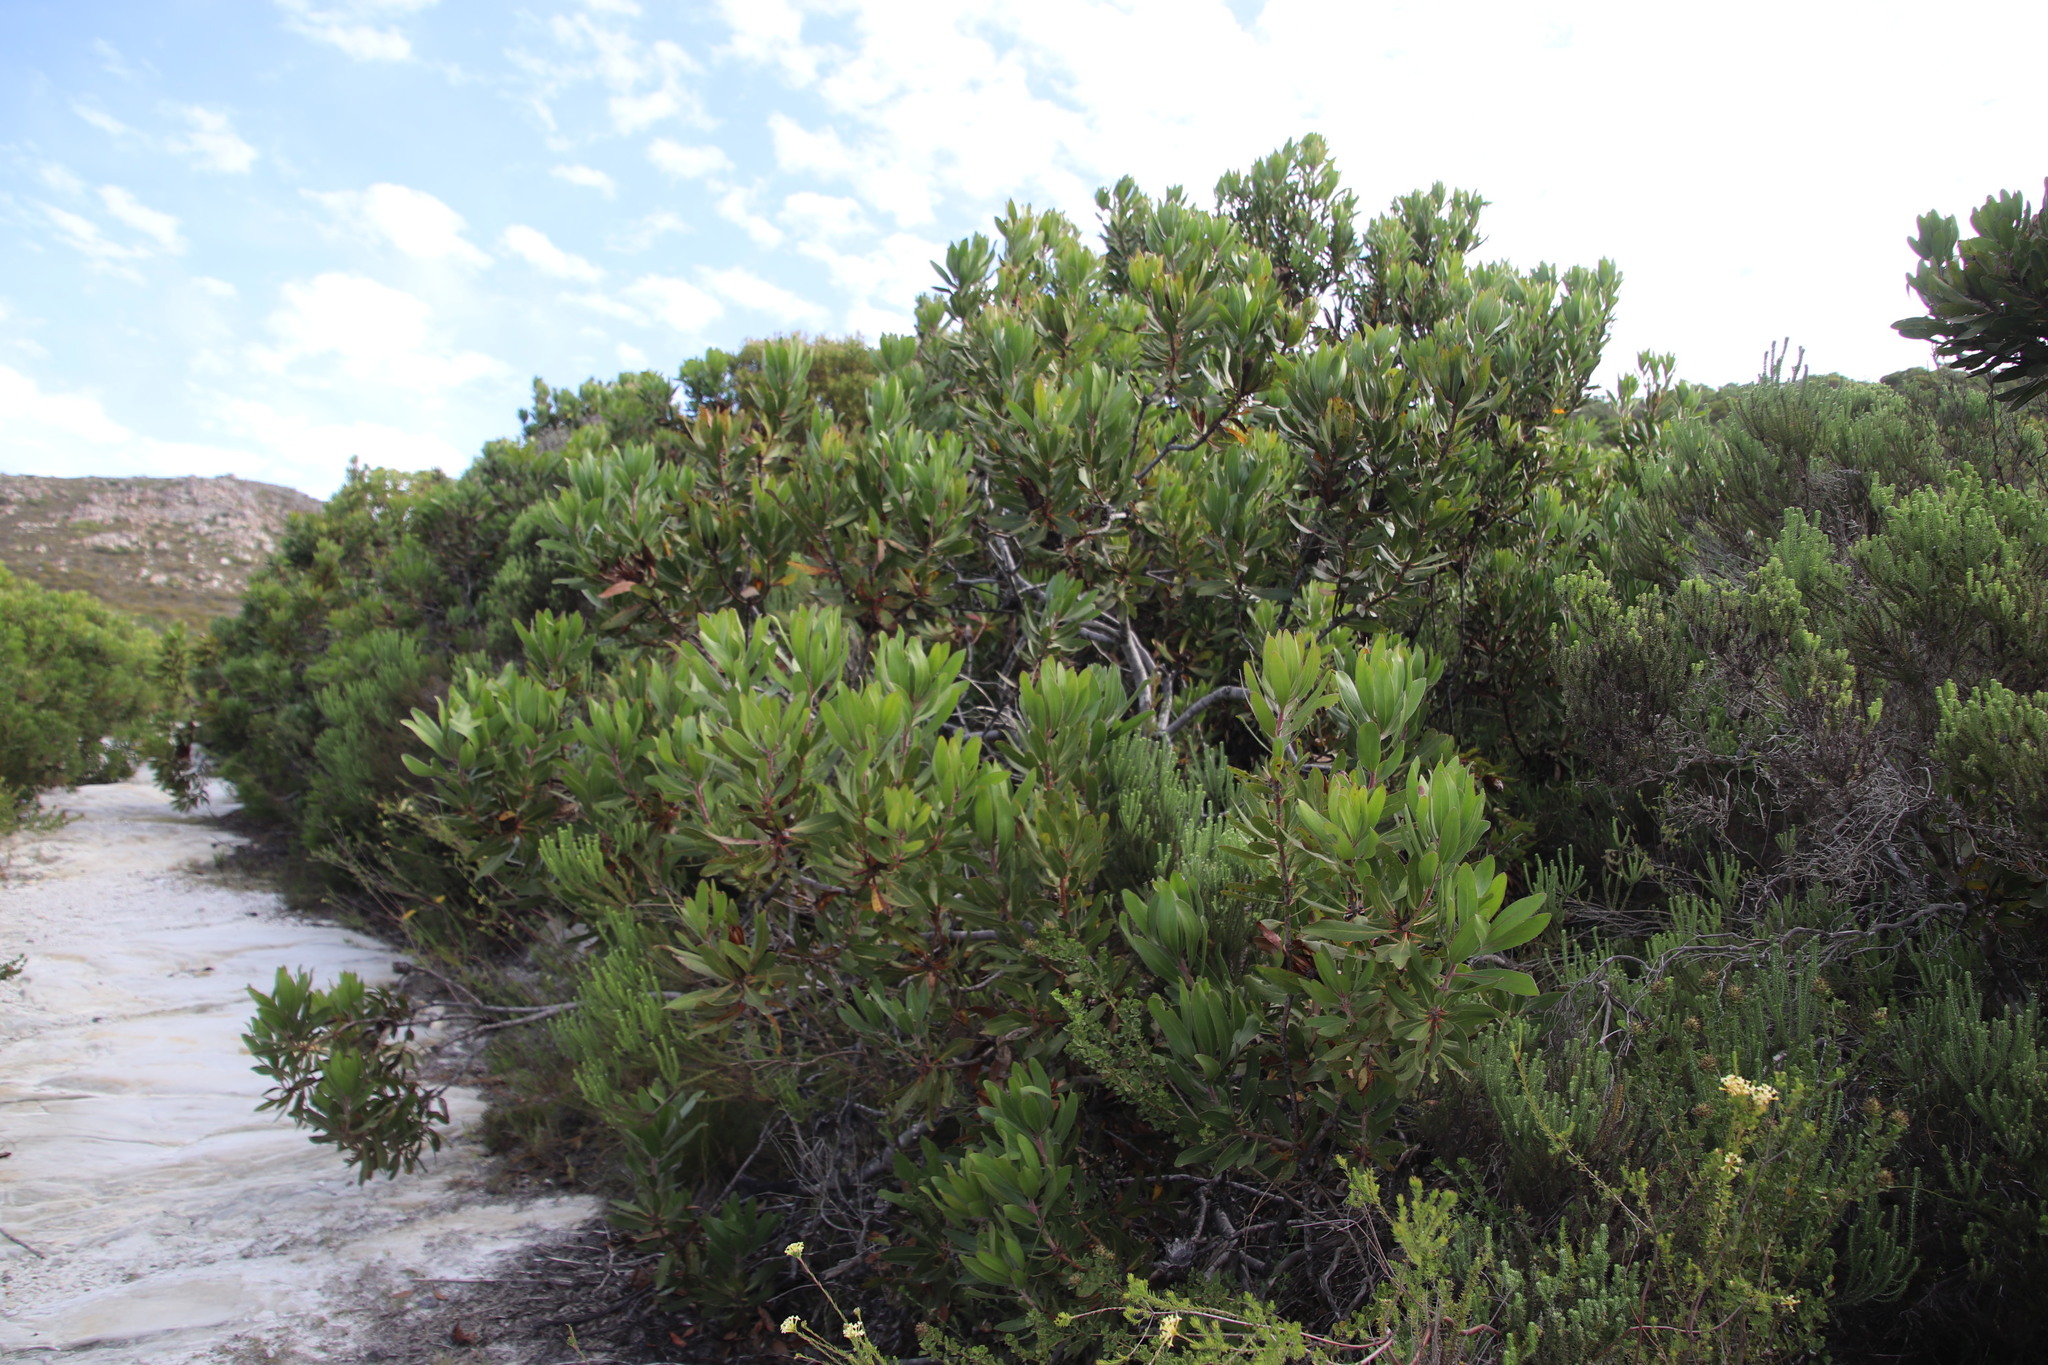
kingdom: Plantae
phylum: Tracheophyta
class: Magnoliopsida
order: Proteales
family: Proteaceae
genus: Protea
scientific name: Protea obtusifolia
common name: Bredasdorp sugarbush
